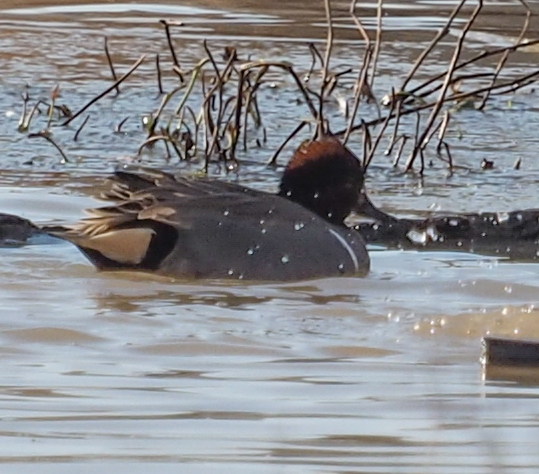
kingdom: Animalia
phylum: Chordata
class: Aves
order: Anseriformes
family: Anatidae
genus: Anas
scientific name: Anas crecca
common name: Eurasian teal
